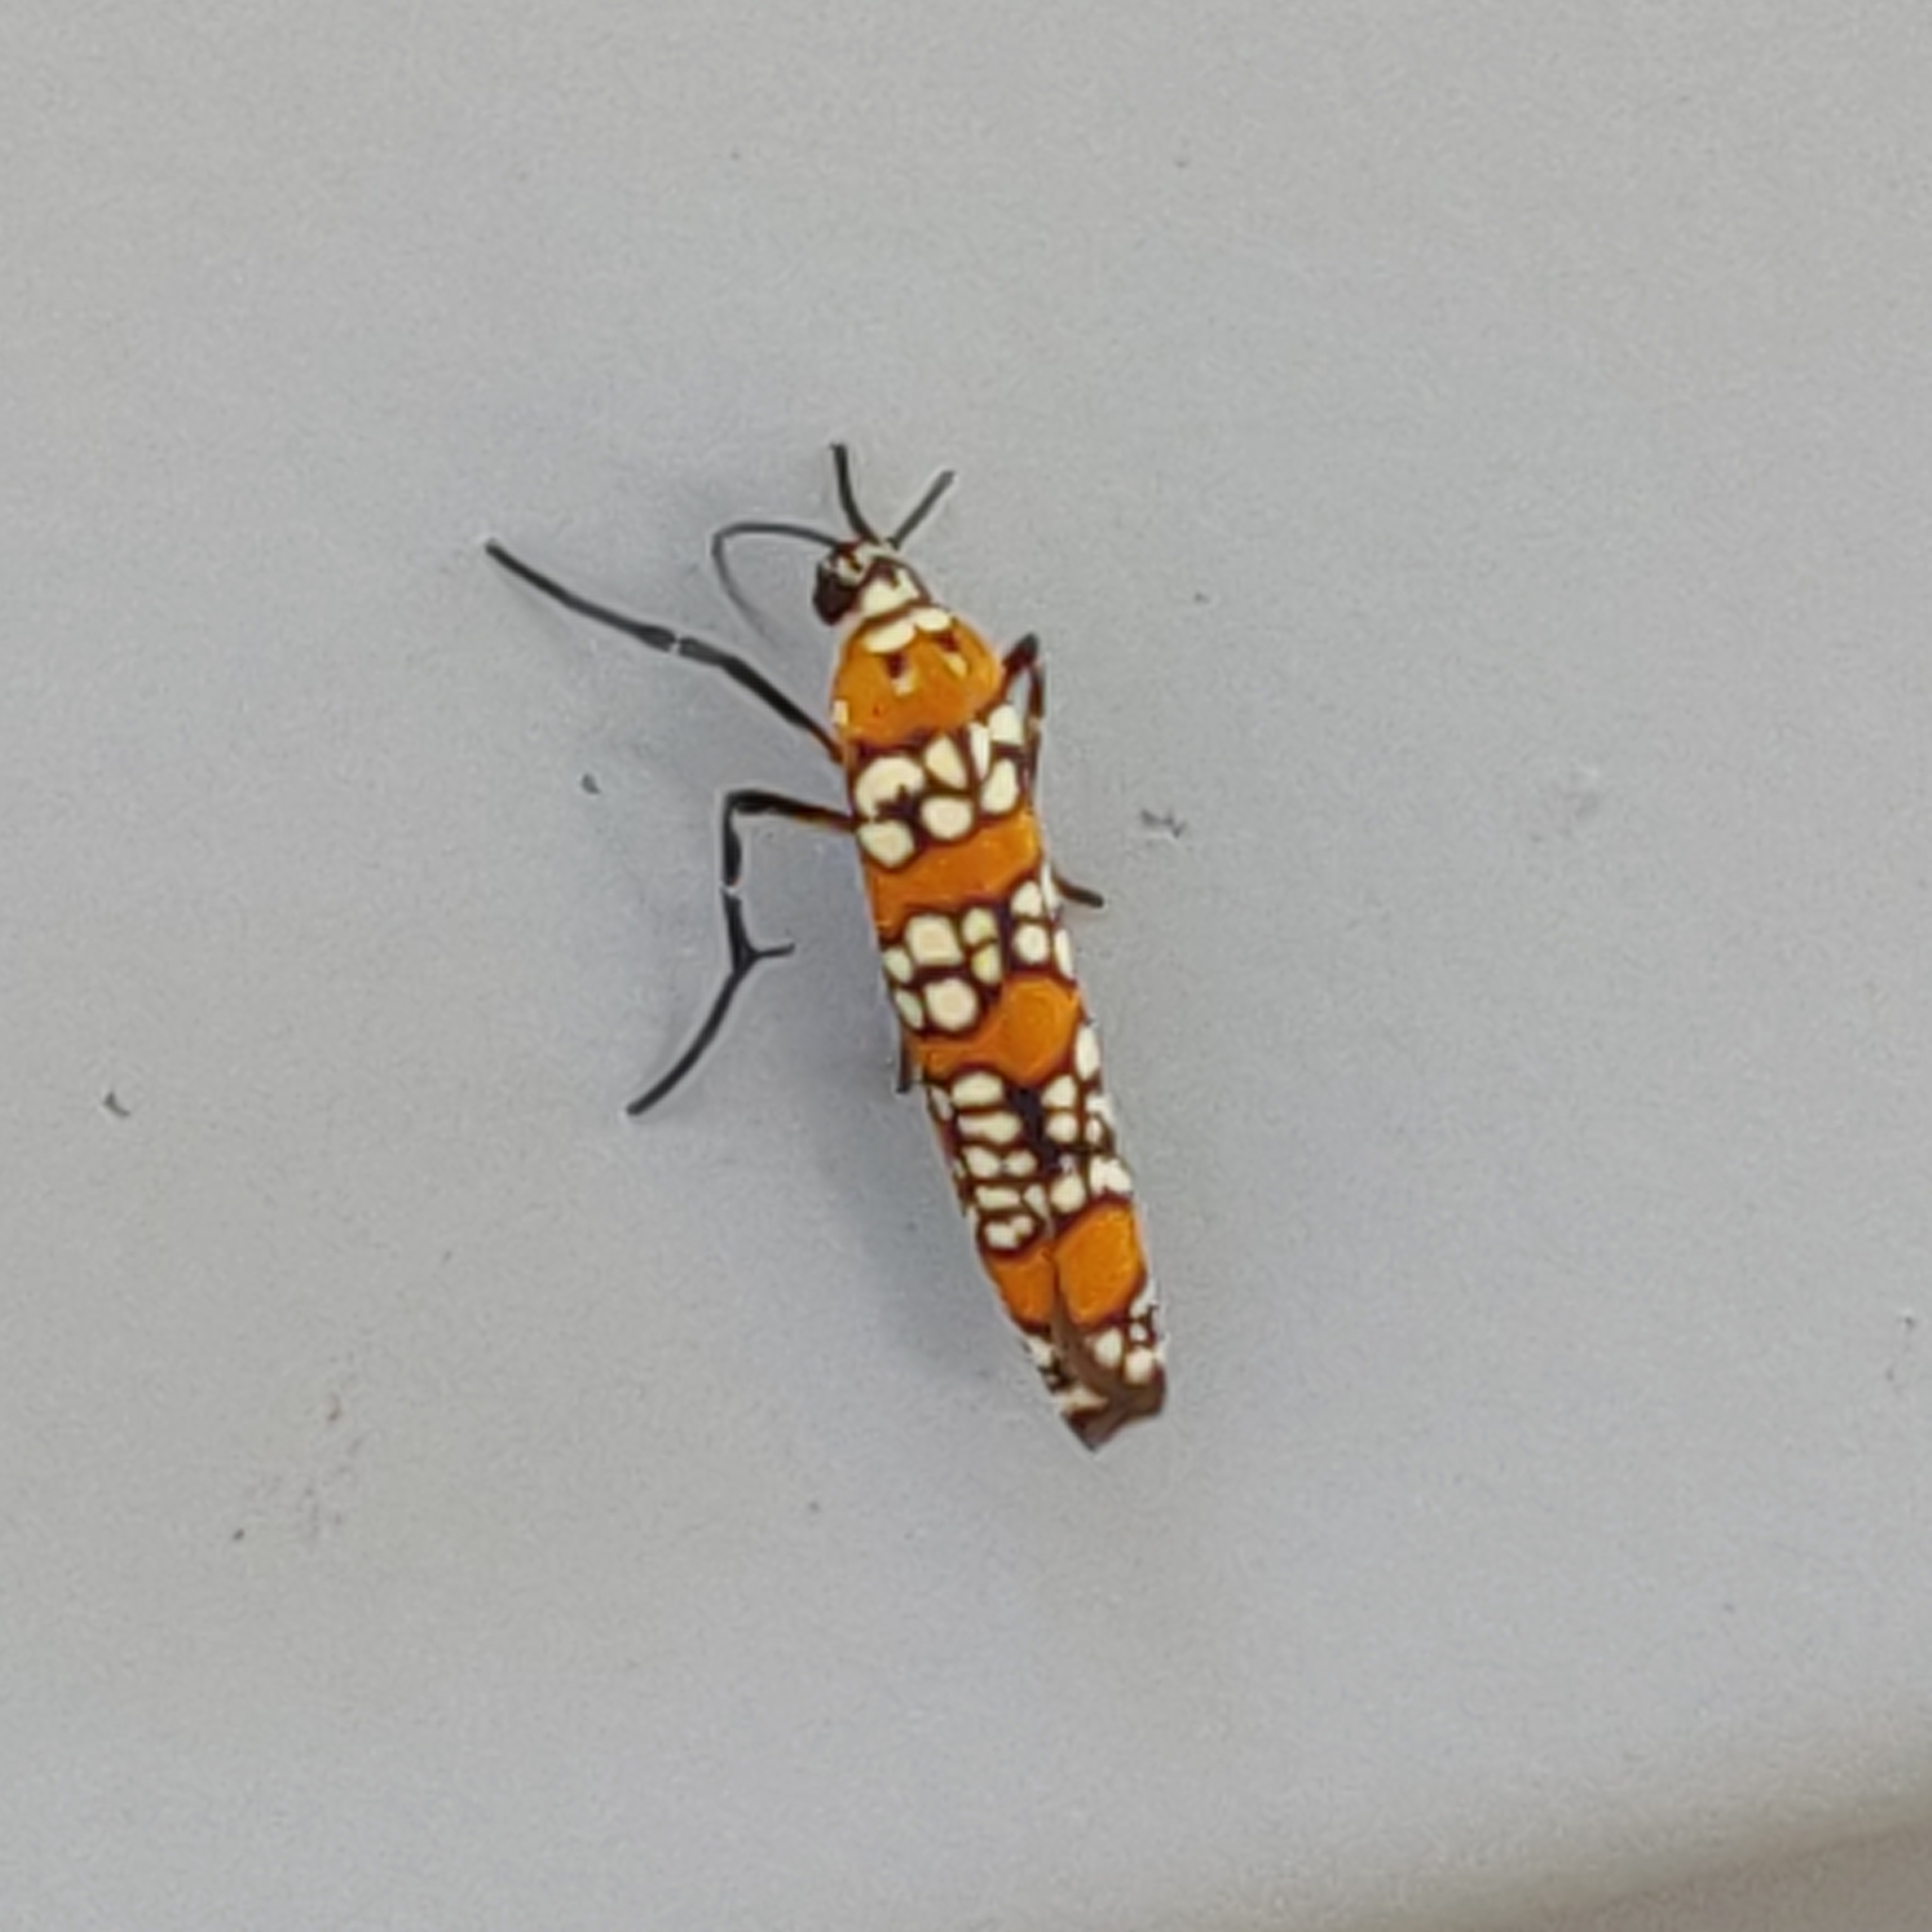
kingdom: Animalia
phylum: Arthropoda
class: Insecta
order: Lepidoptera
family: Attevidae
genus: Atteva
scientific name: Atteva punctella
